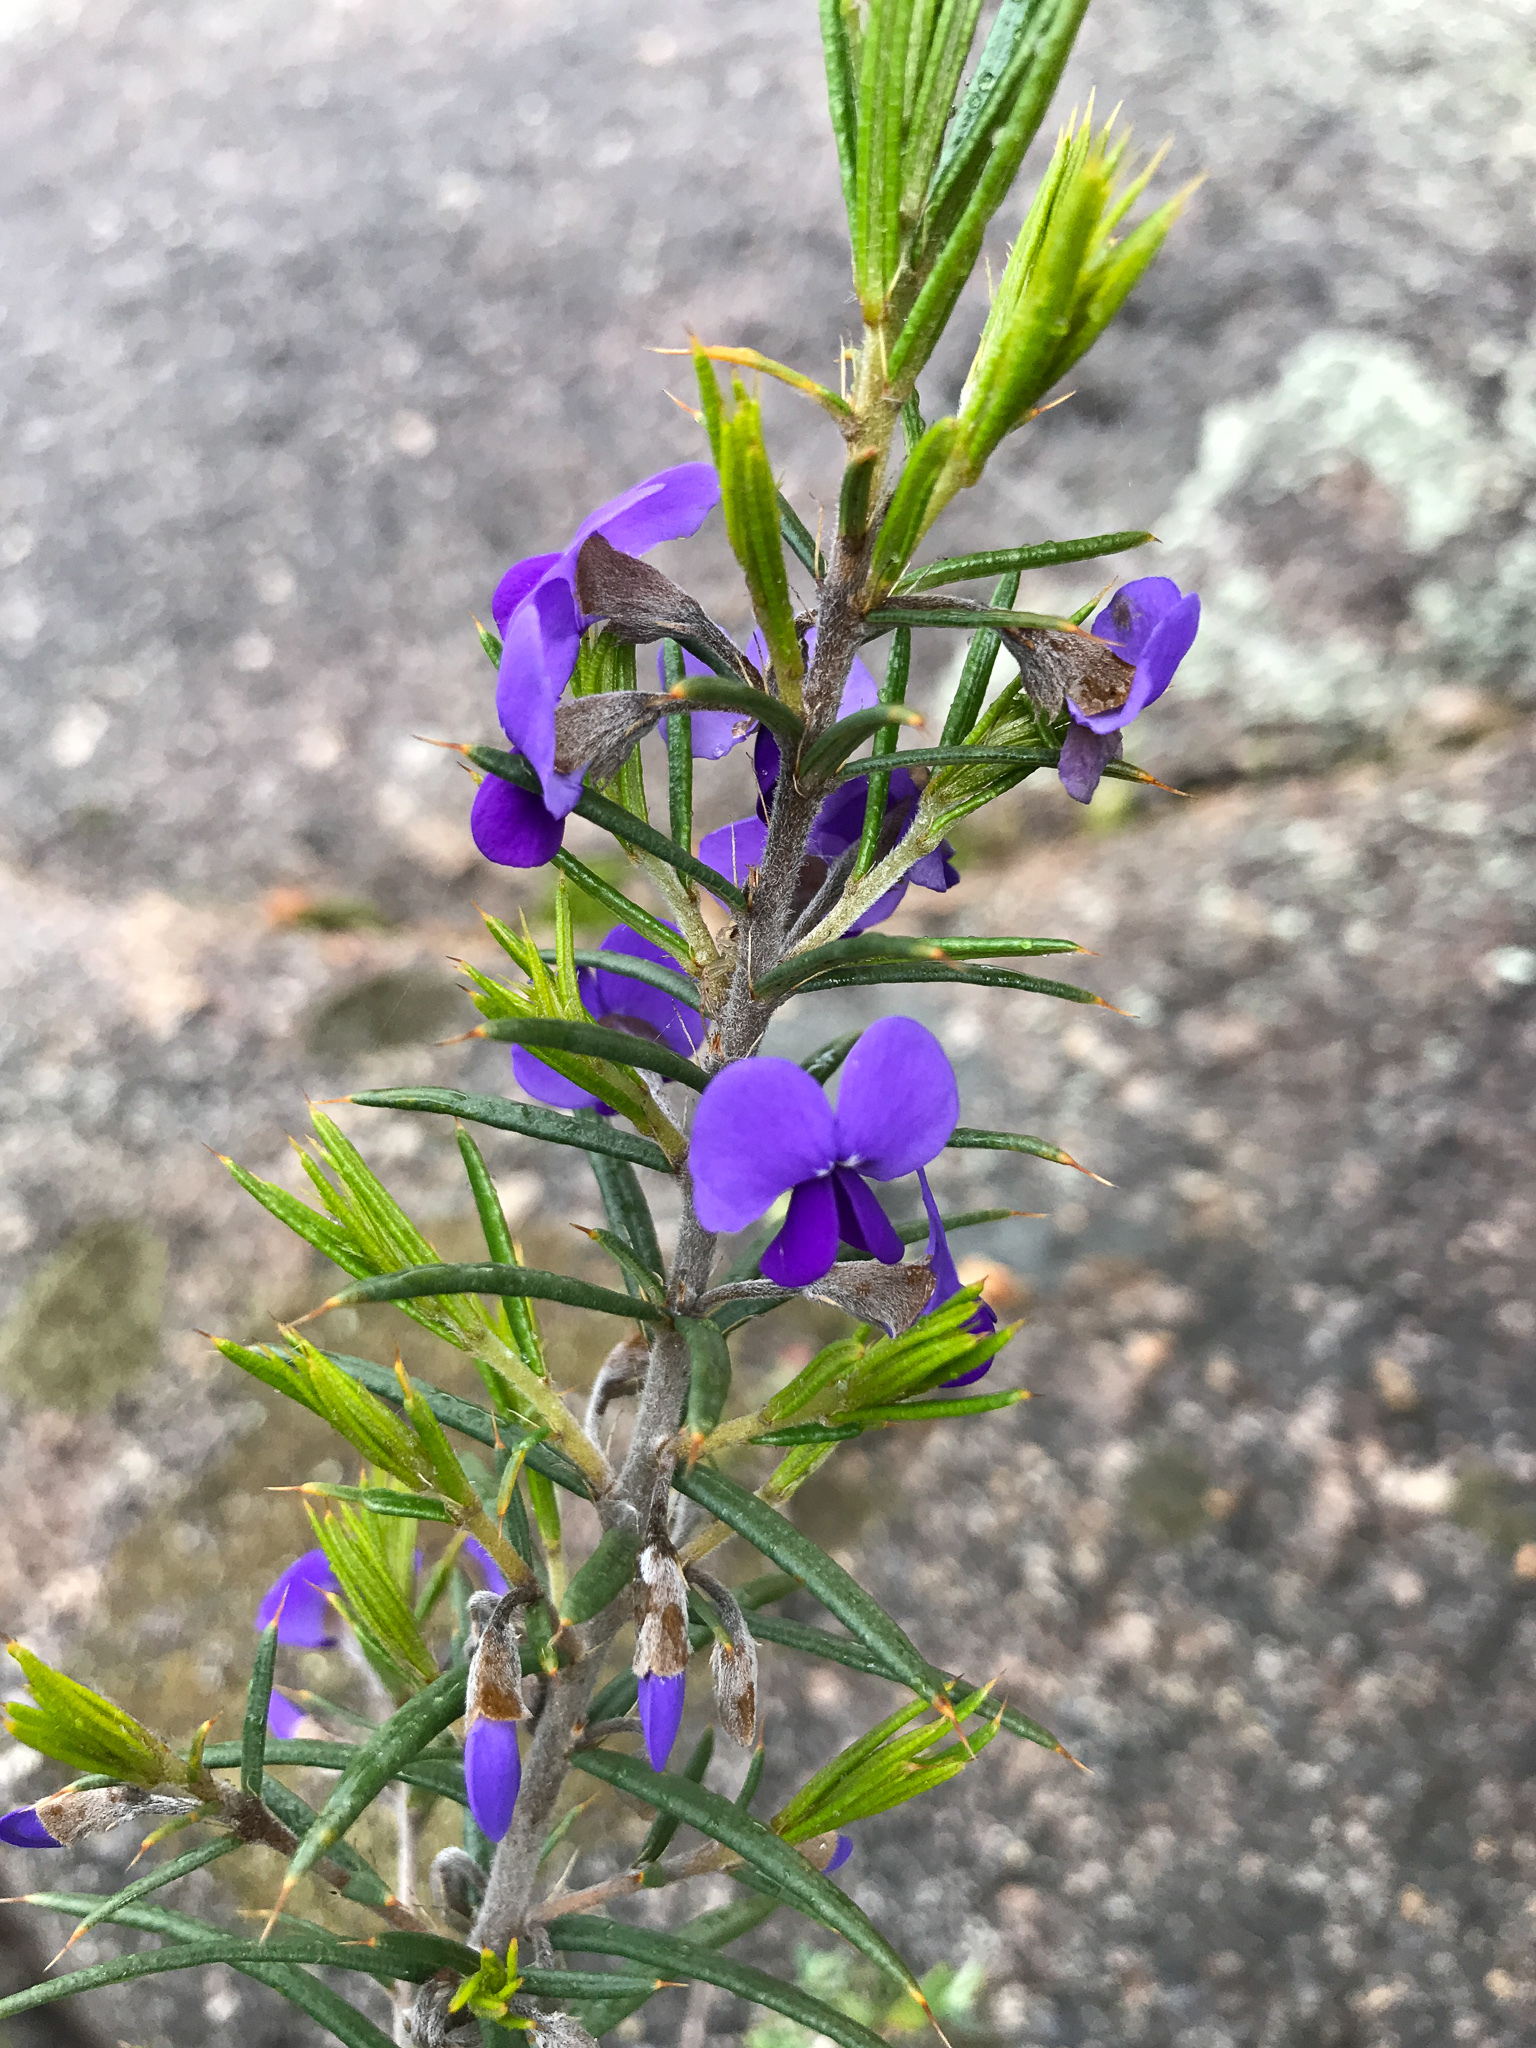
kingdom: Plantae
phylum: Tracheophyta
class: Magnoliopsida
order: Fabales
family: Fabaceae
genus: Hovea
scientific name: Hovea pungens
